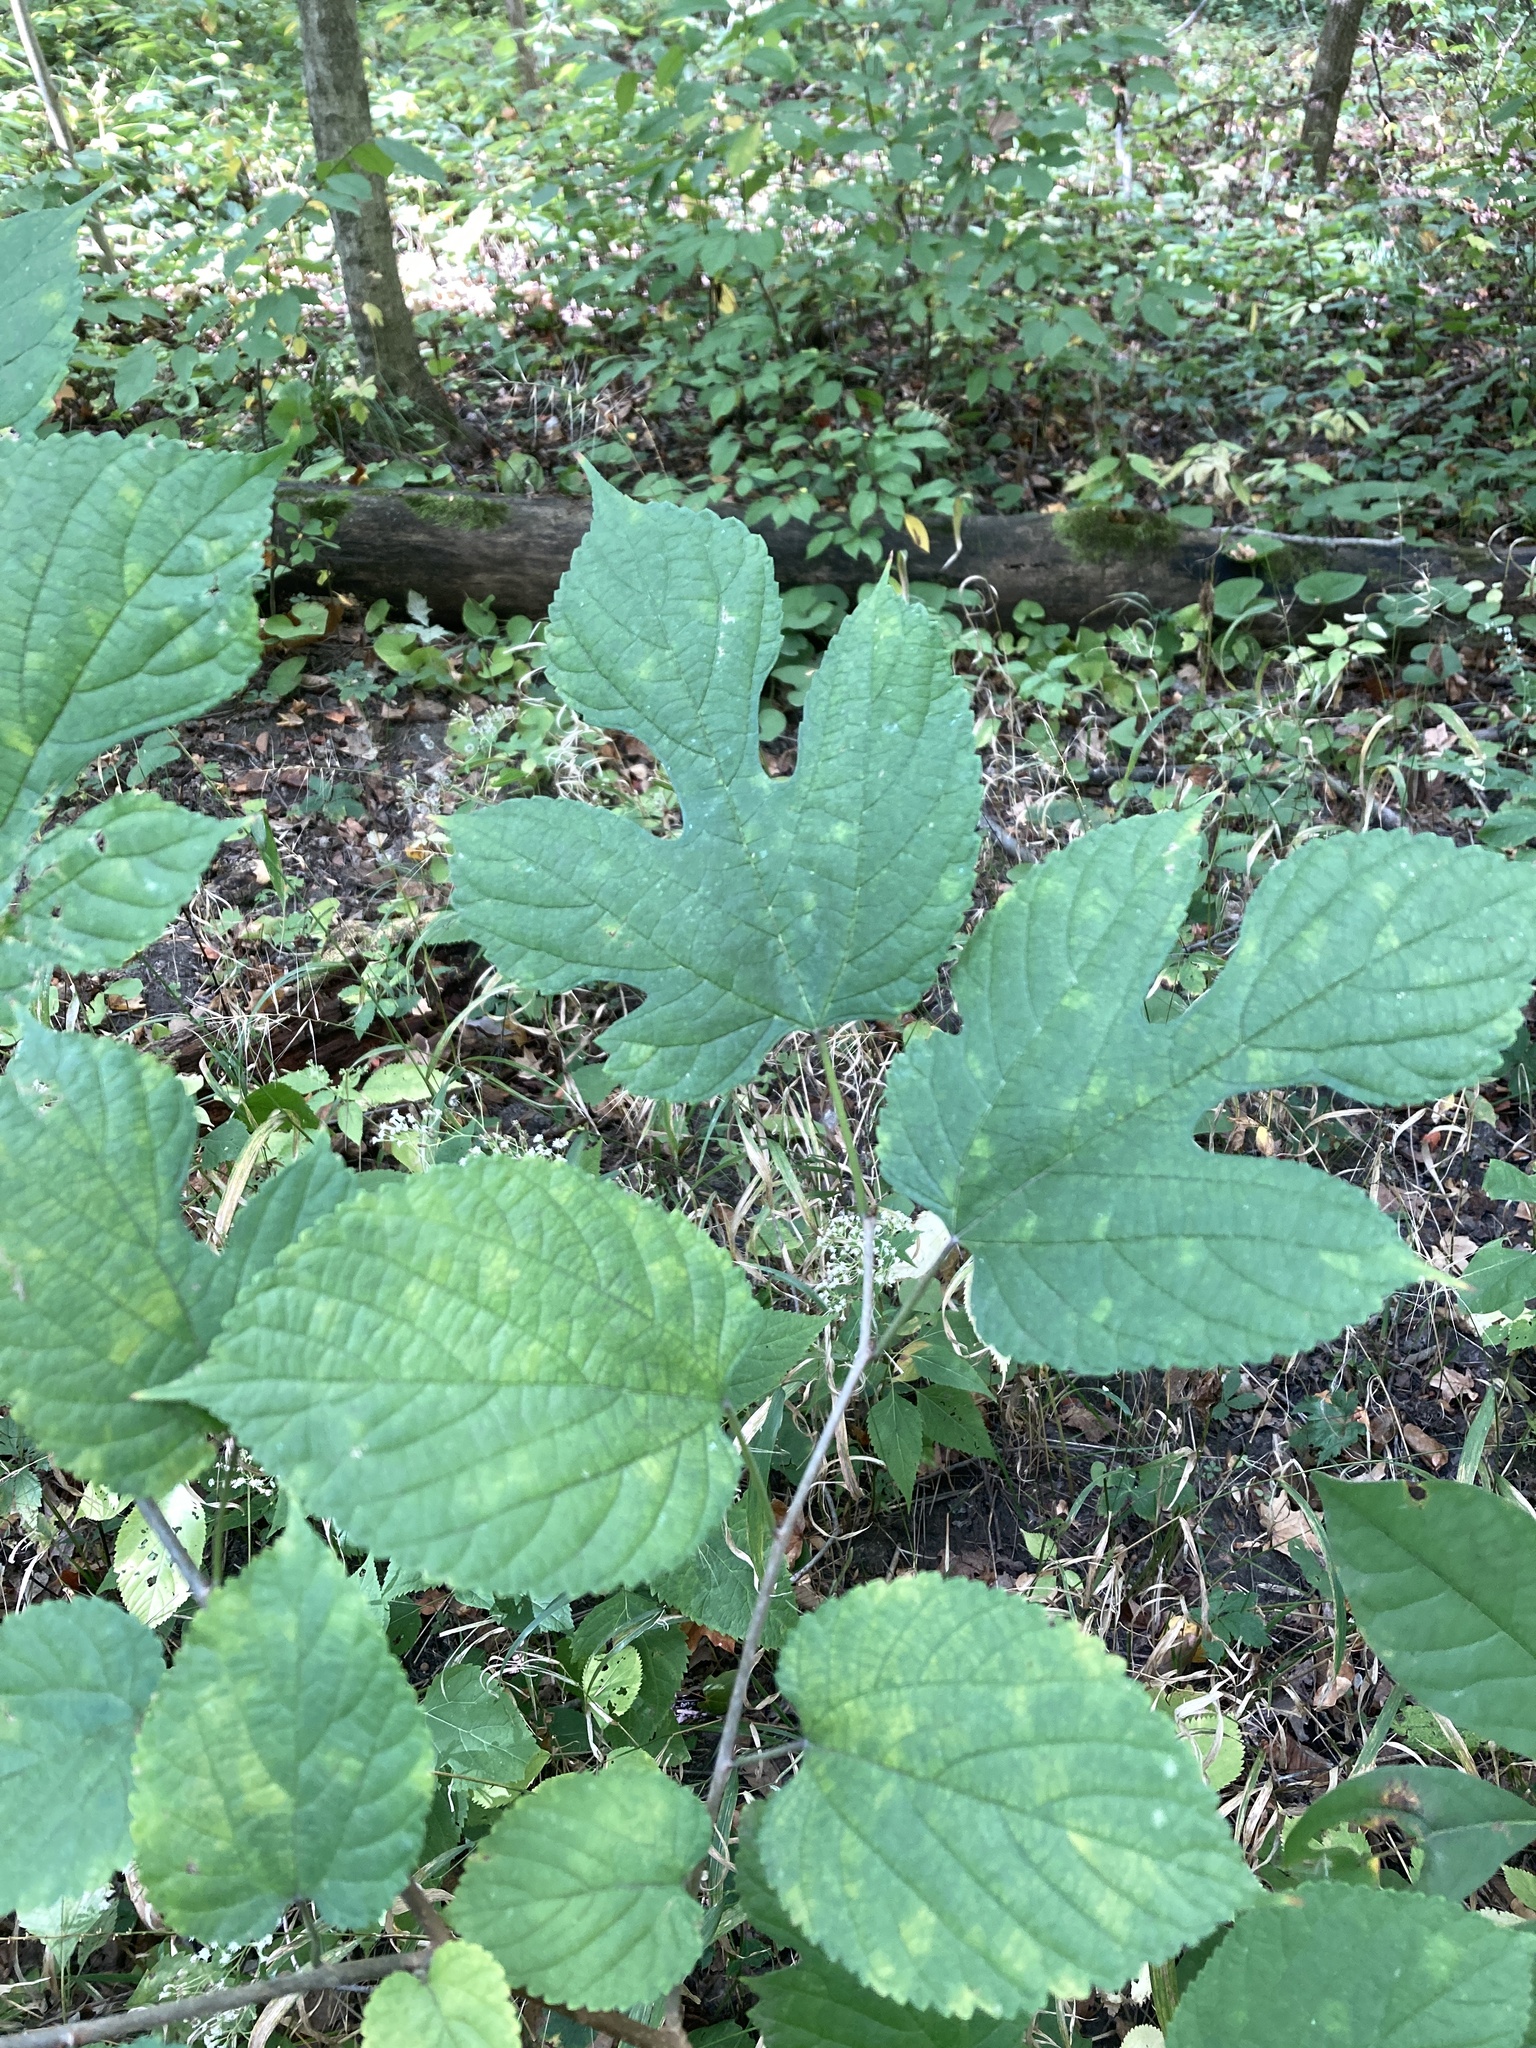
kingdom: Plantae
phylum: Tracheophyta
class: Magnoliopsida
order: Rosales
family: Moraceae
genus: Morus
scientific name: Morus rubra
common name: Red mulberry
